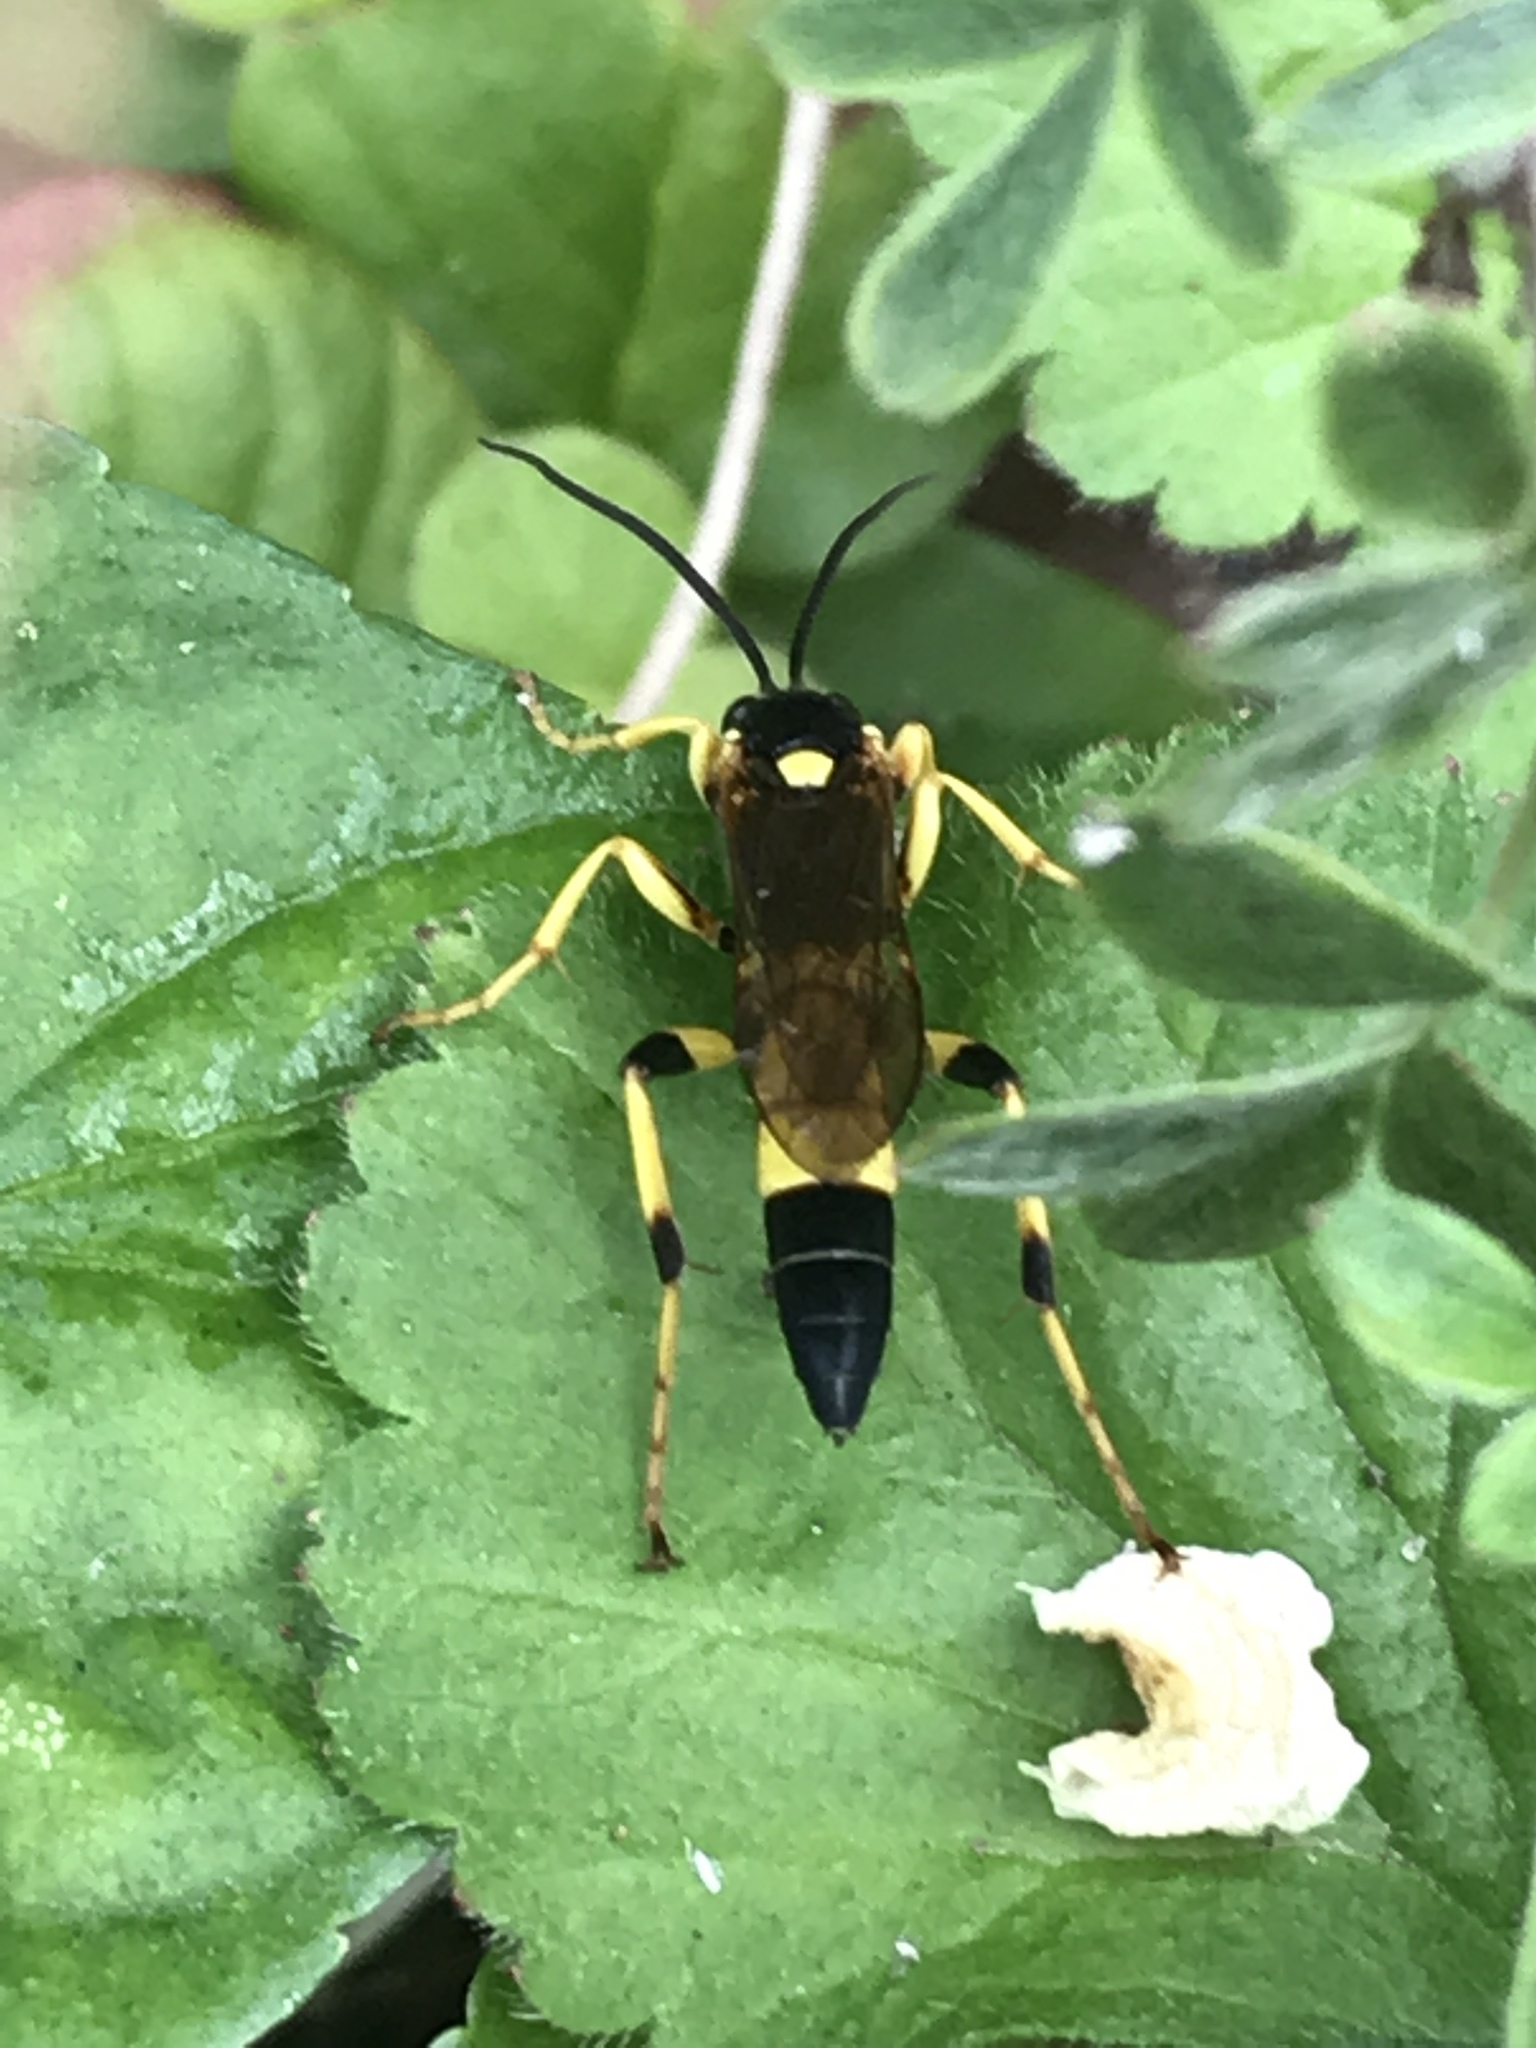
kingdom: Animalia
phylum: Arthropoda
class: Insecta
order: Hymenoptera
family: Ichneumonidae
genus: Ichneumon
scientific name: Ichneumon xanthorius
